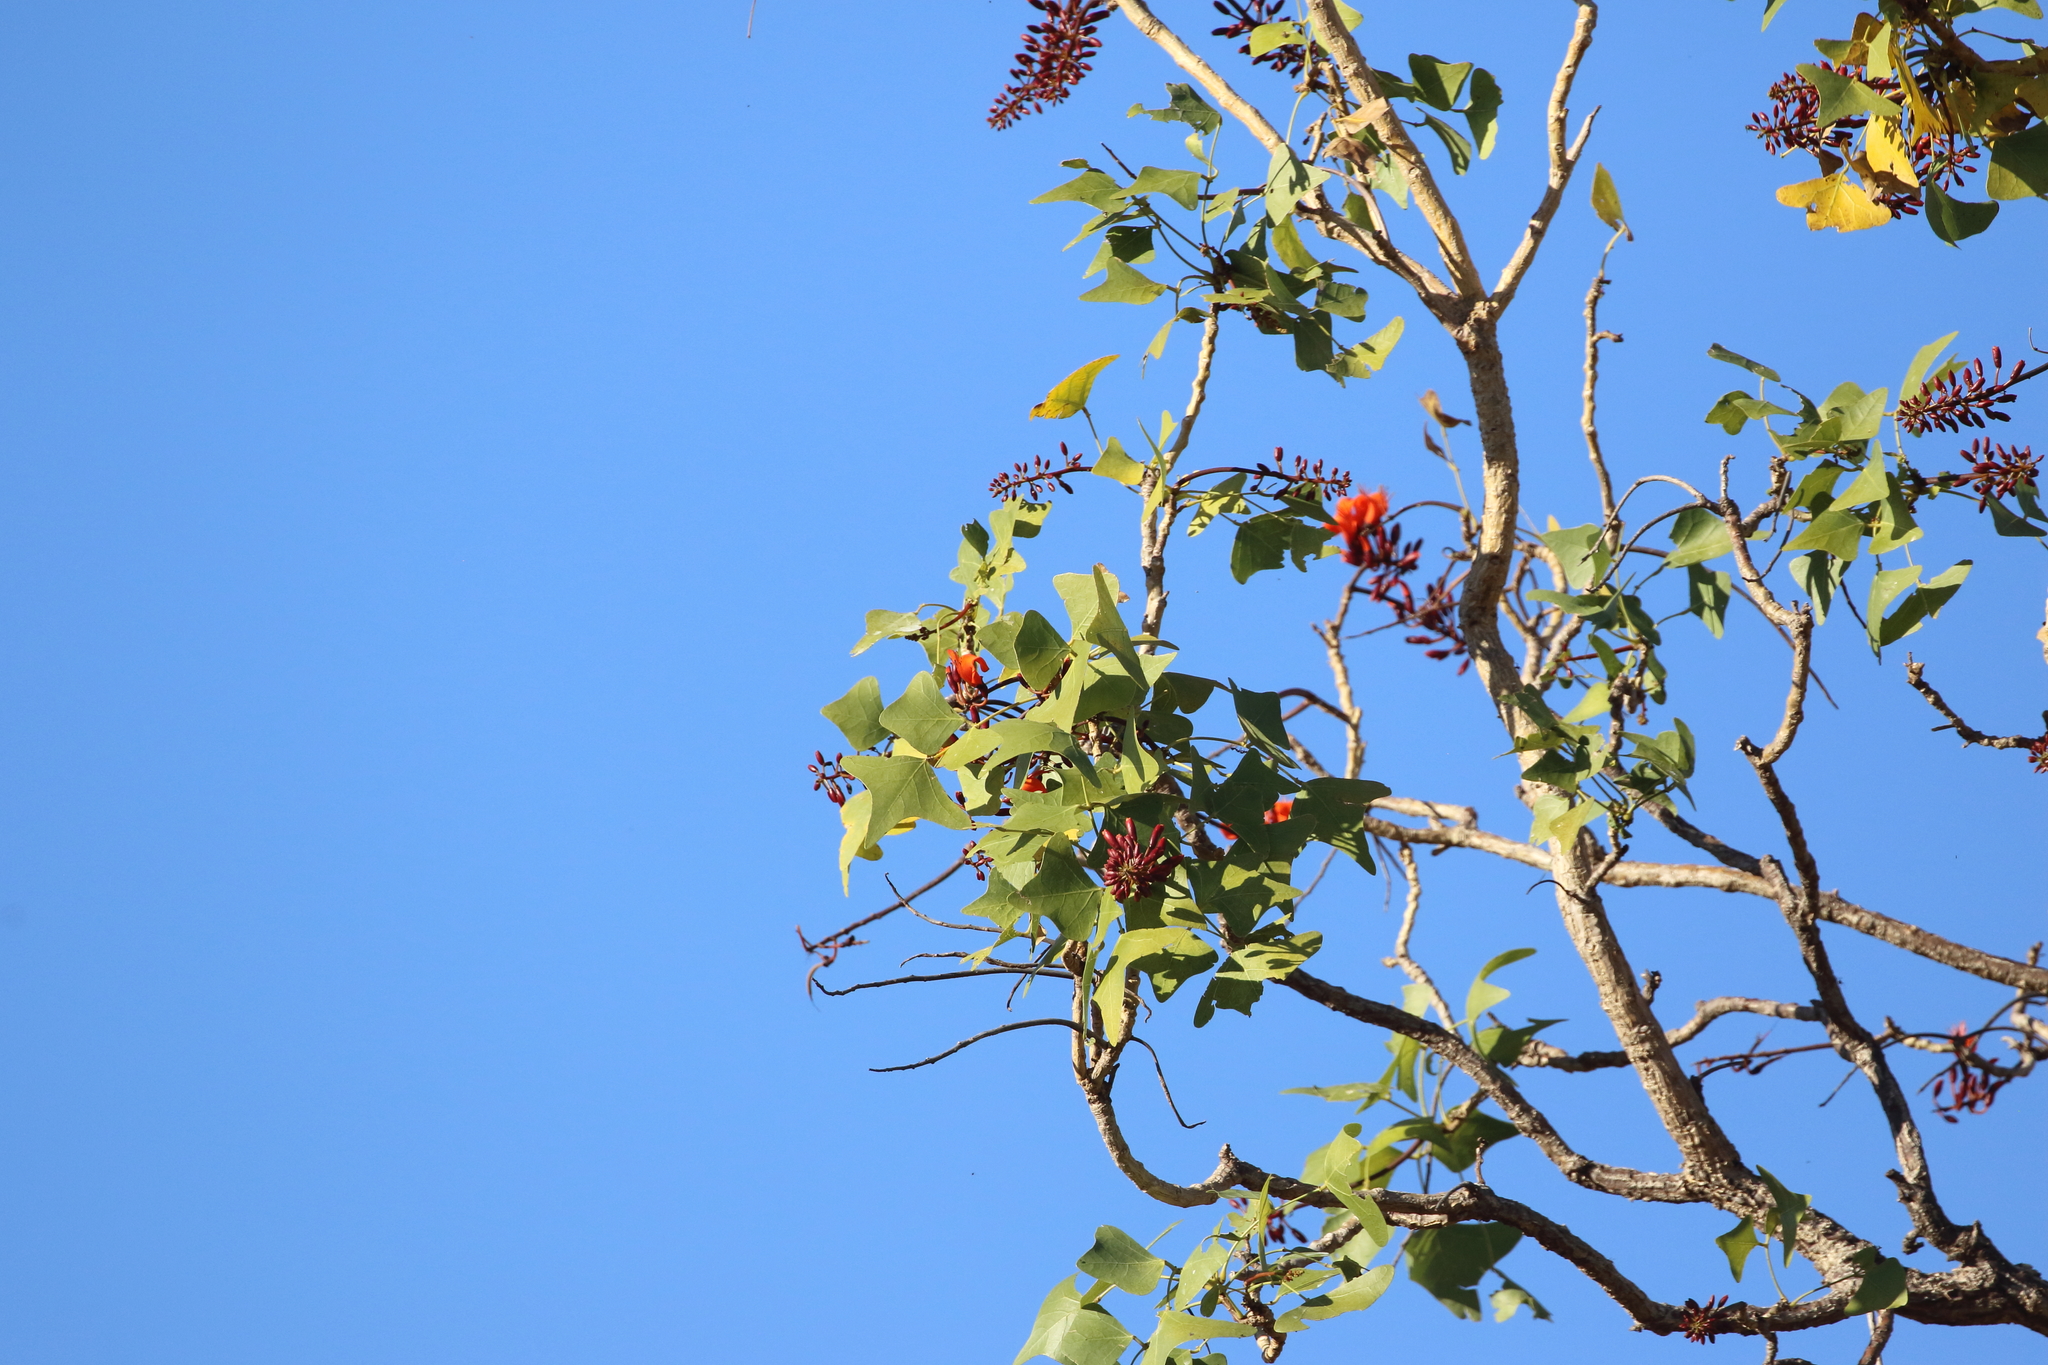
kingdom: Plantae
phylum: Tracheophyta
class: Magnoliopsida
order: Fabales
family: Fabaceae
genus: Erythrina
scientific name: Erythrina vespertilio
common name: Bat-wing coral tree
